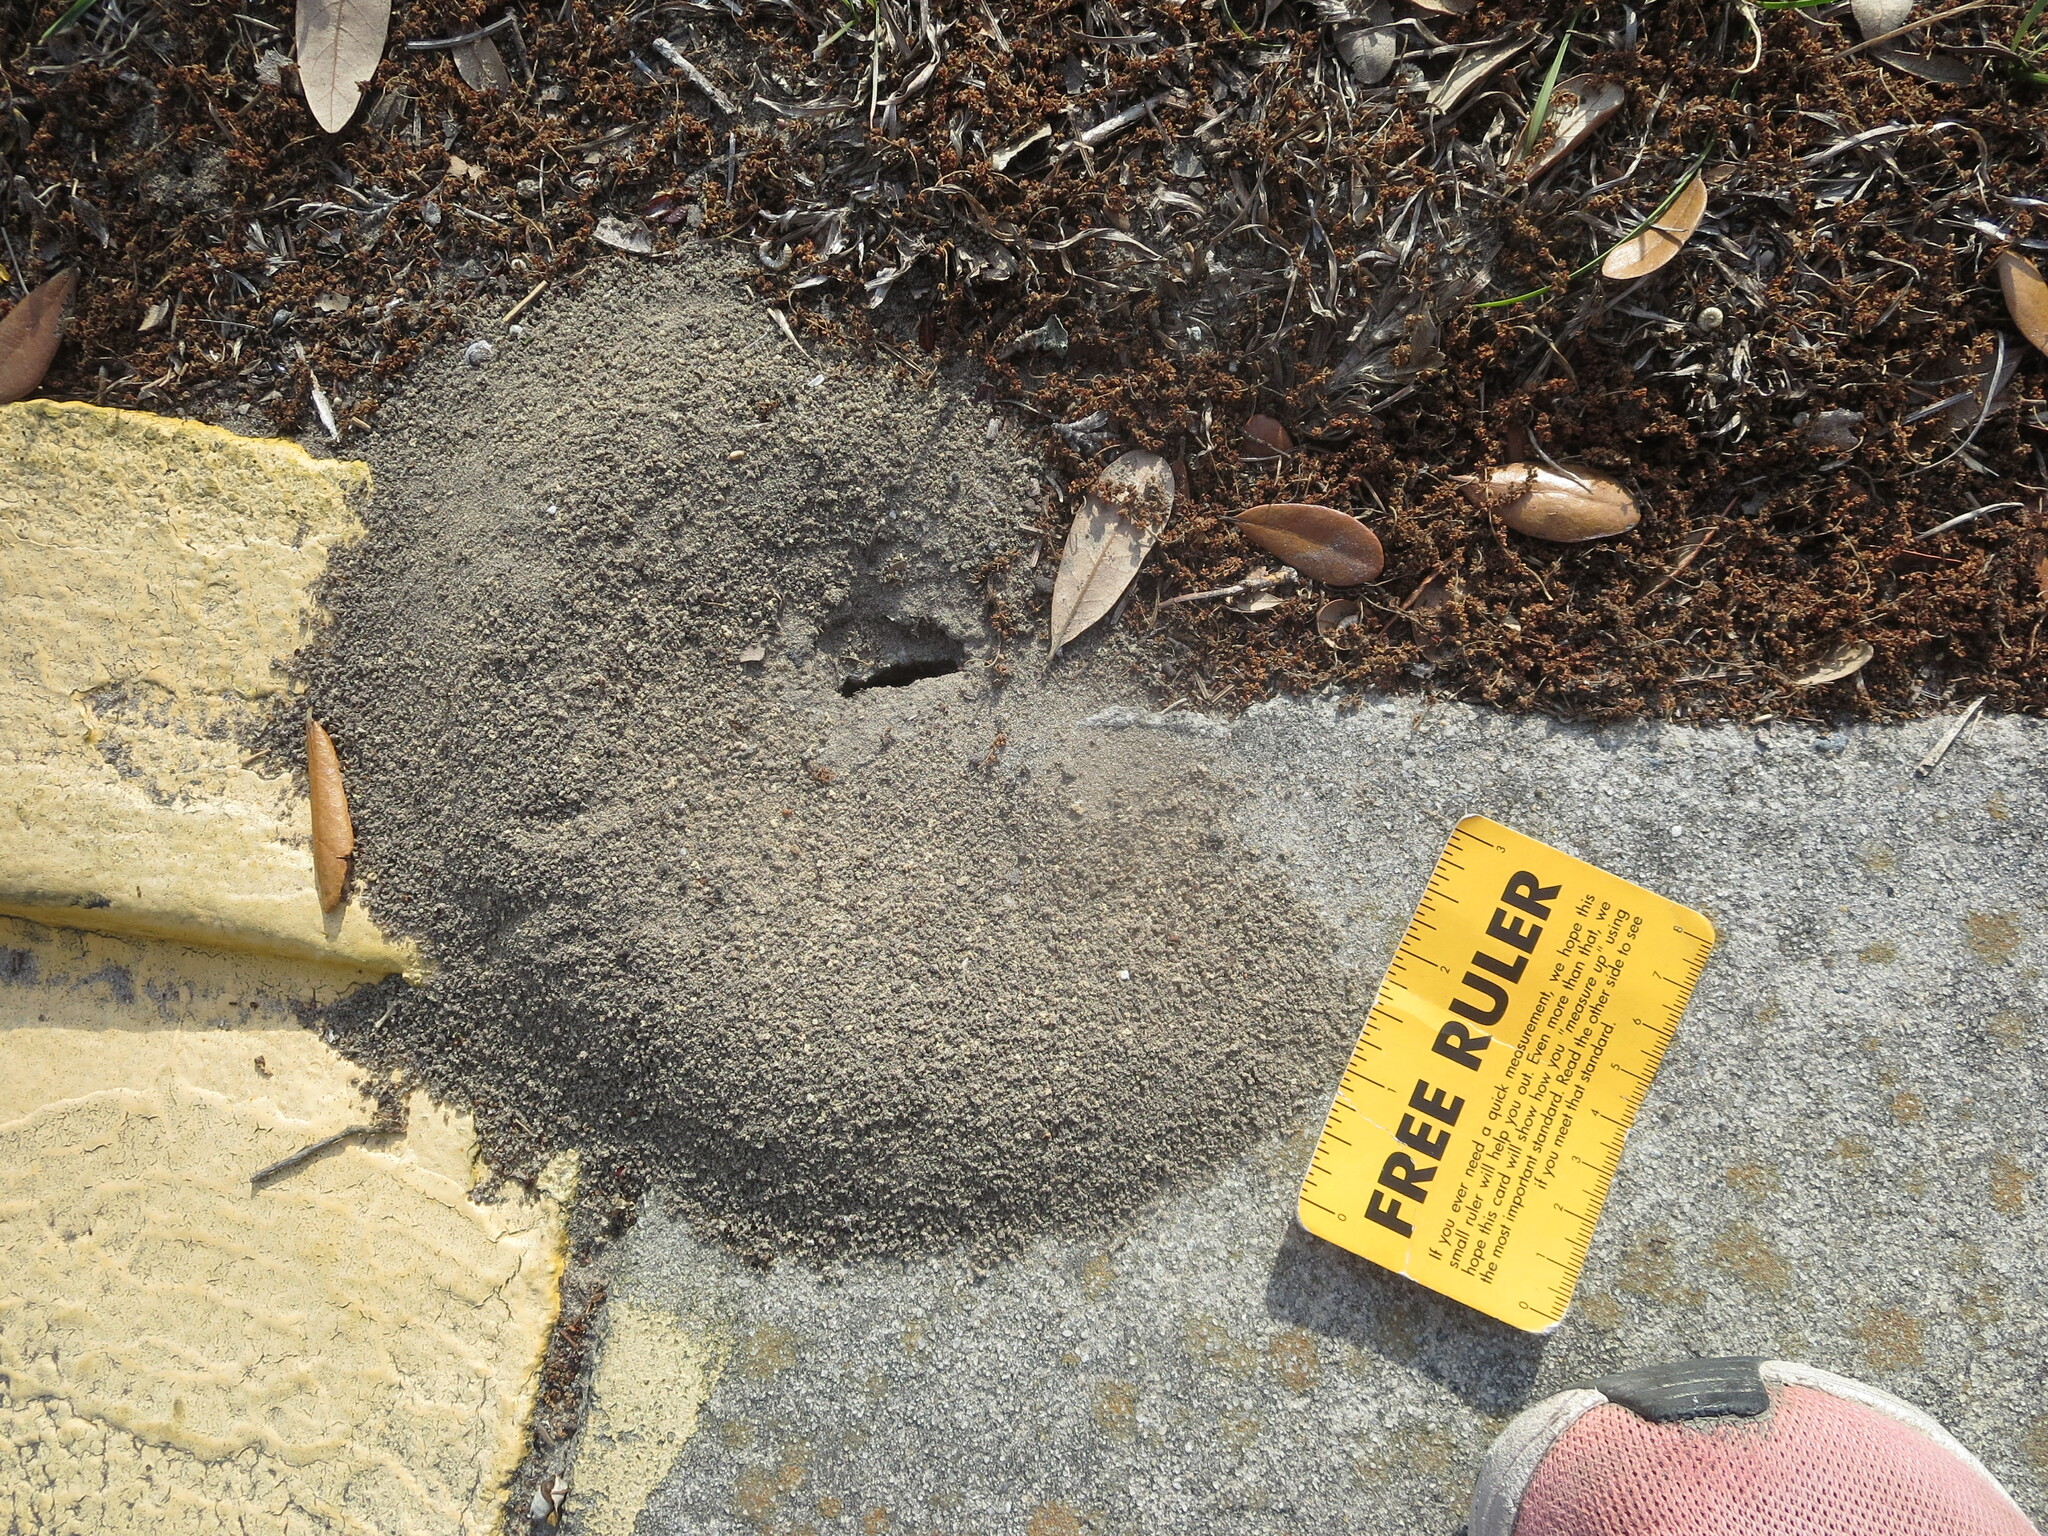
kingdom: Animalia
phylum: Arthropoda
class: Insecta
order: Hymenoptera
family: Formicidae
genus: Pheidole
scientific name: Pheidole obscurithorax
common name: Obscure big-headed ant
